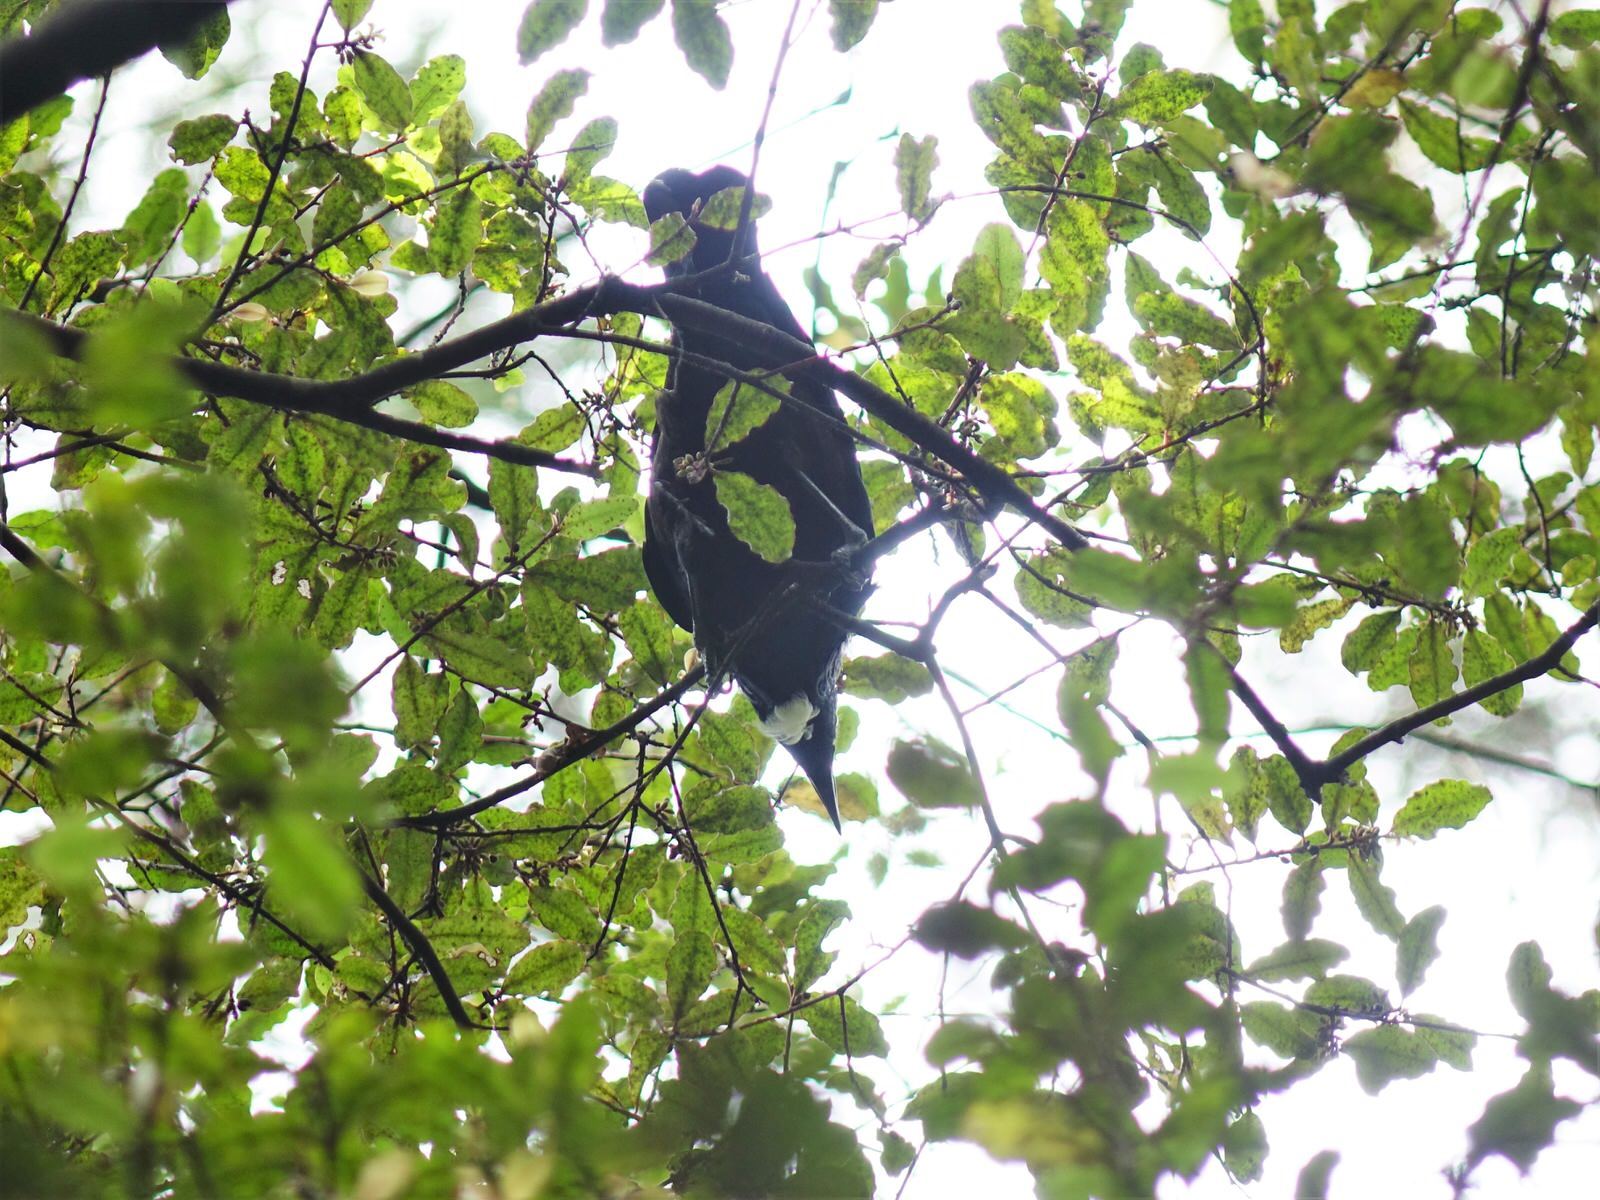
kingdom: Animalia
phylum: Chordata
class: Aves
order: Passeriformes
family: Meliphagidae
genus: Prosthemadera
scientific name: Prosthemadera novaeseelandiae
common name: Tui
